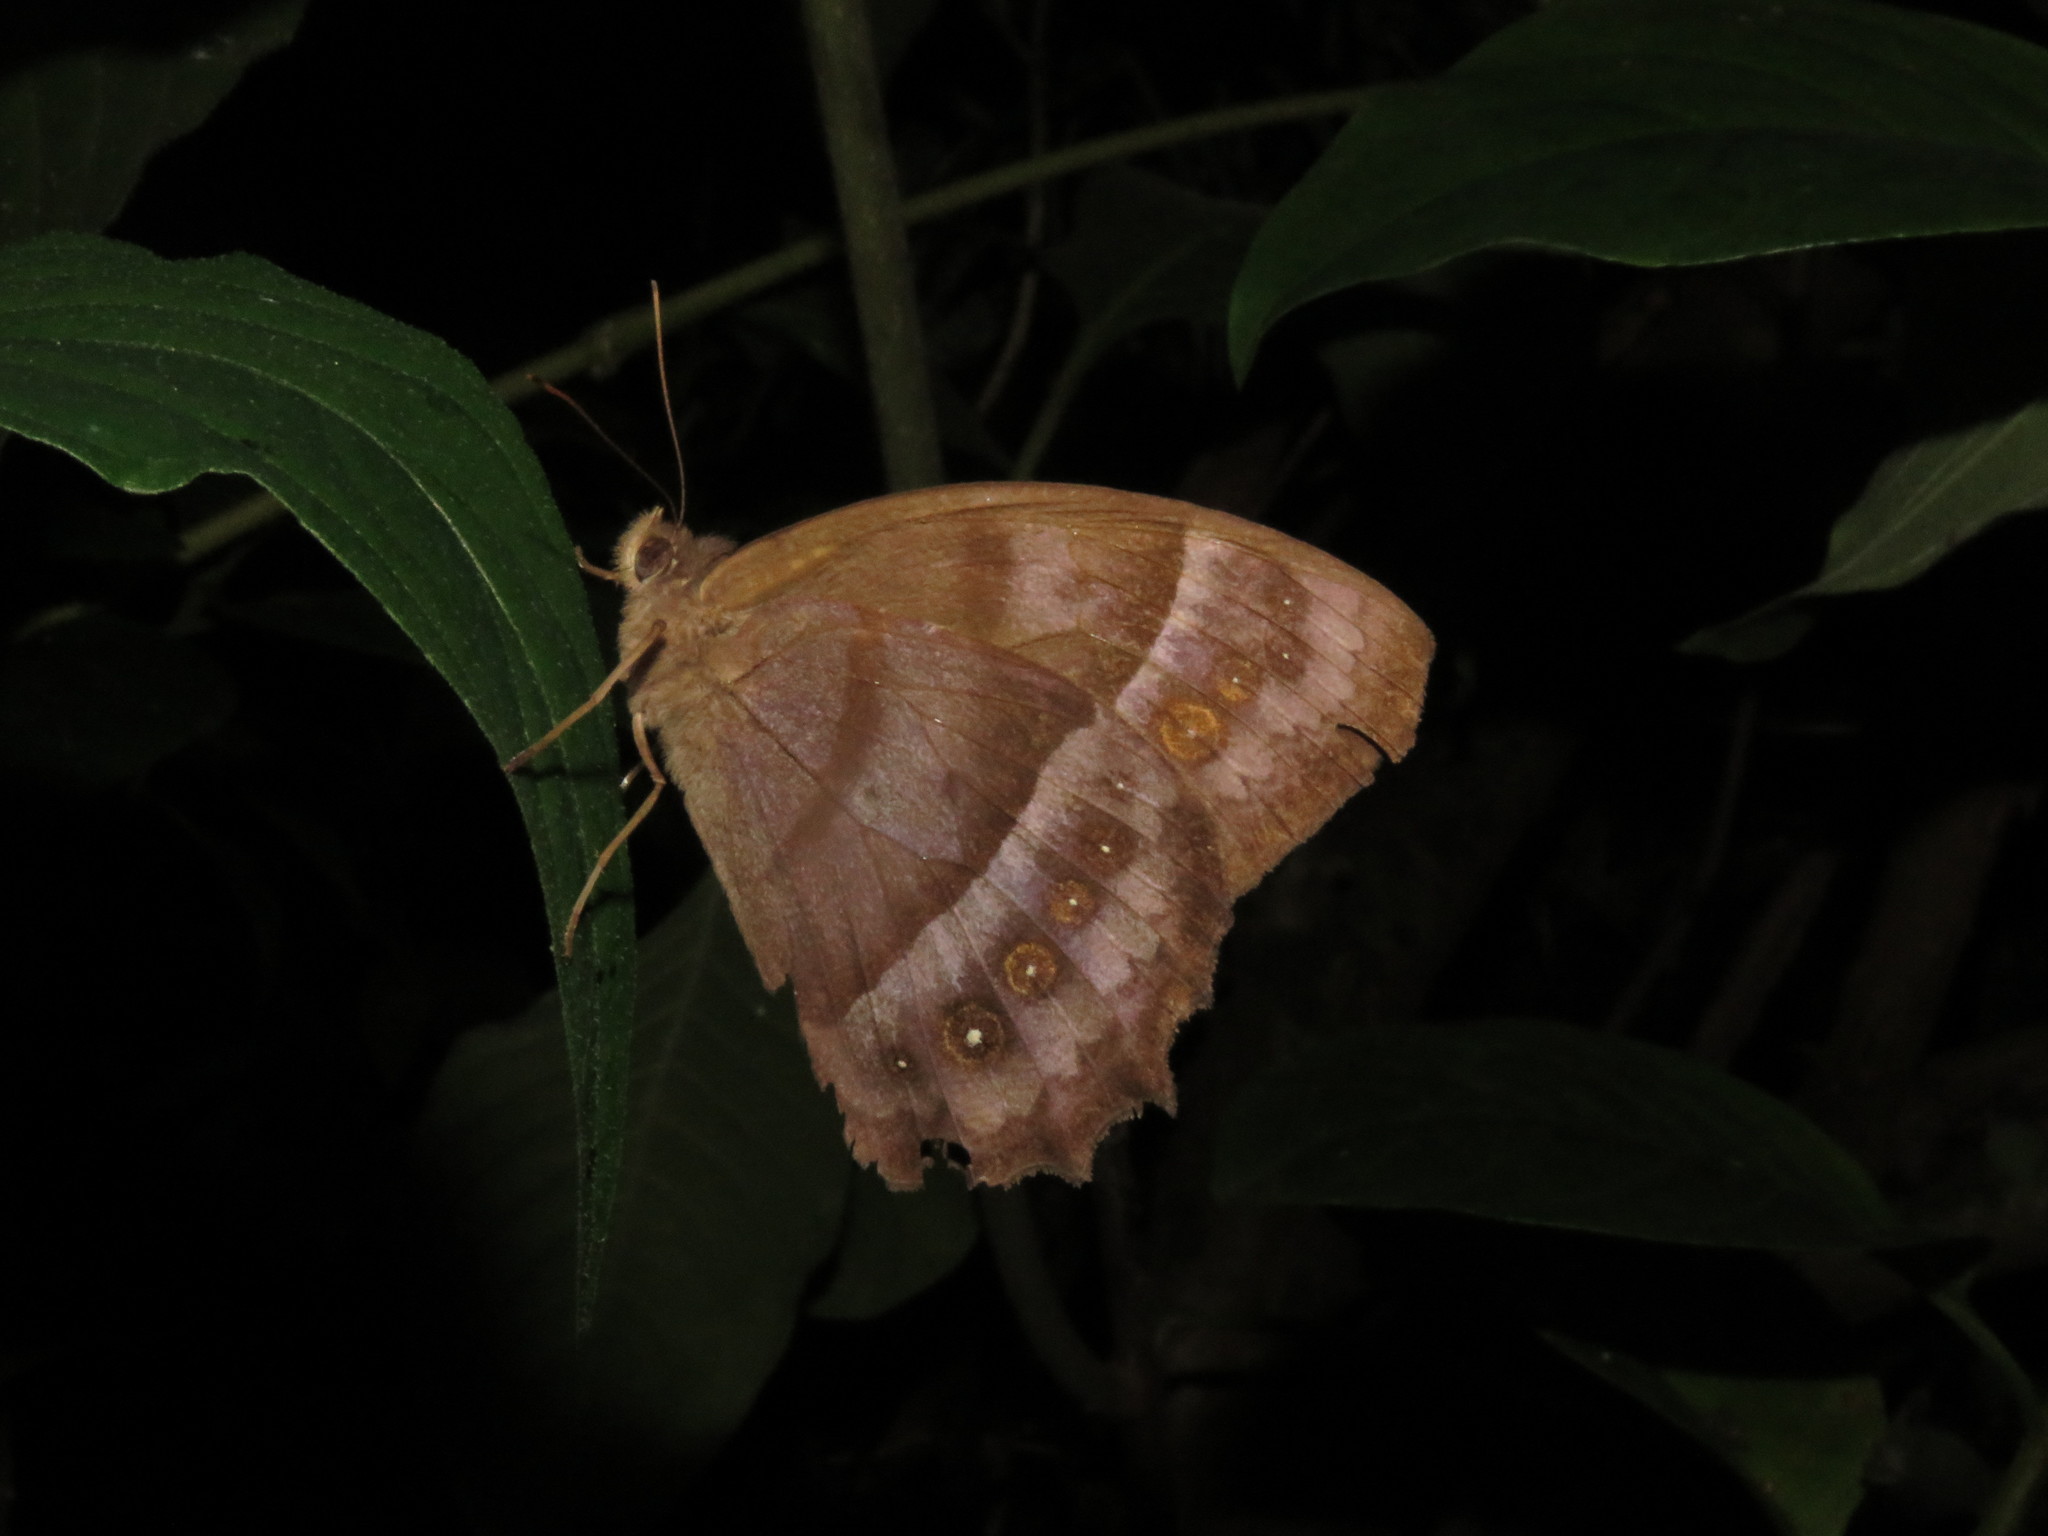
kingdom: Animalia
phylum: Arthropoda
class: Insecta
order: Lepidoptera
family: Nymphalidae
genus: Taygetis
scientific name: Taygetis thamyra
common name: Thamyra satyr
